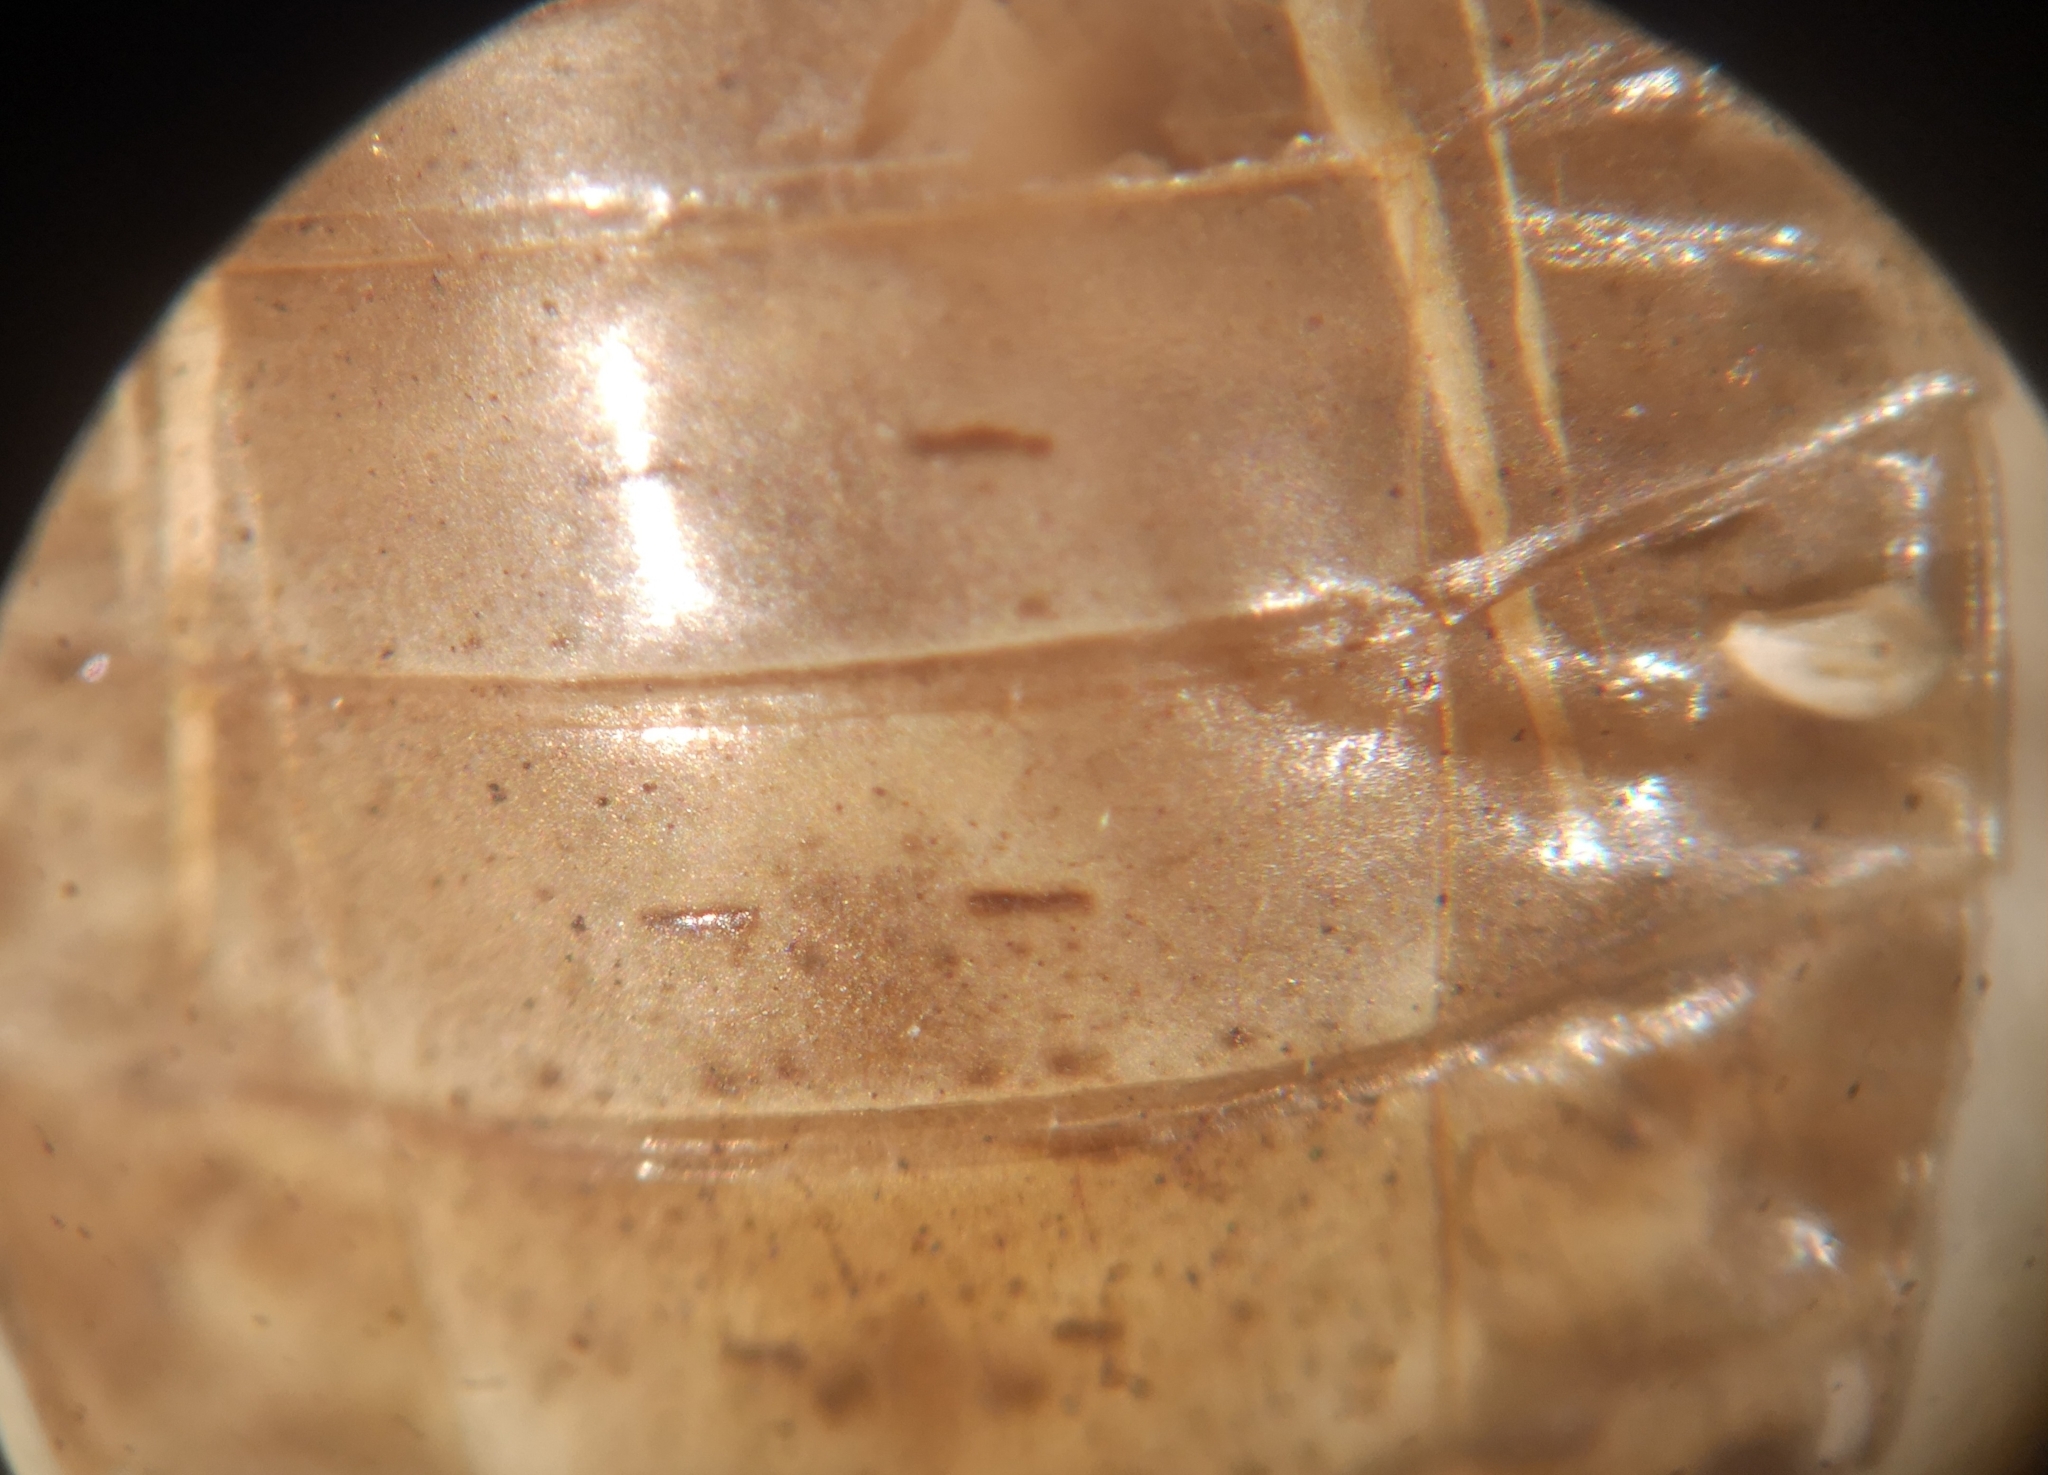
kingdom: Animalia
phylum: Arthropoda
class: Insecta
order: Odonata
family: Libellulidae
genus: Sympetrum
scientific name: Sympetrum vulgatum
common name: Vagrant darter
